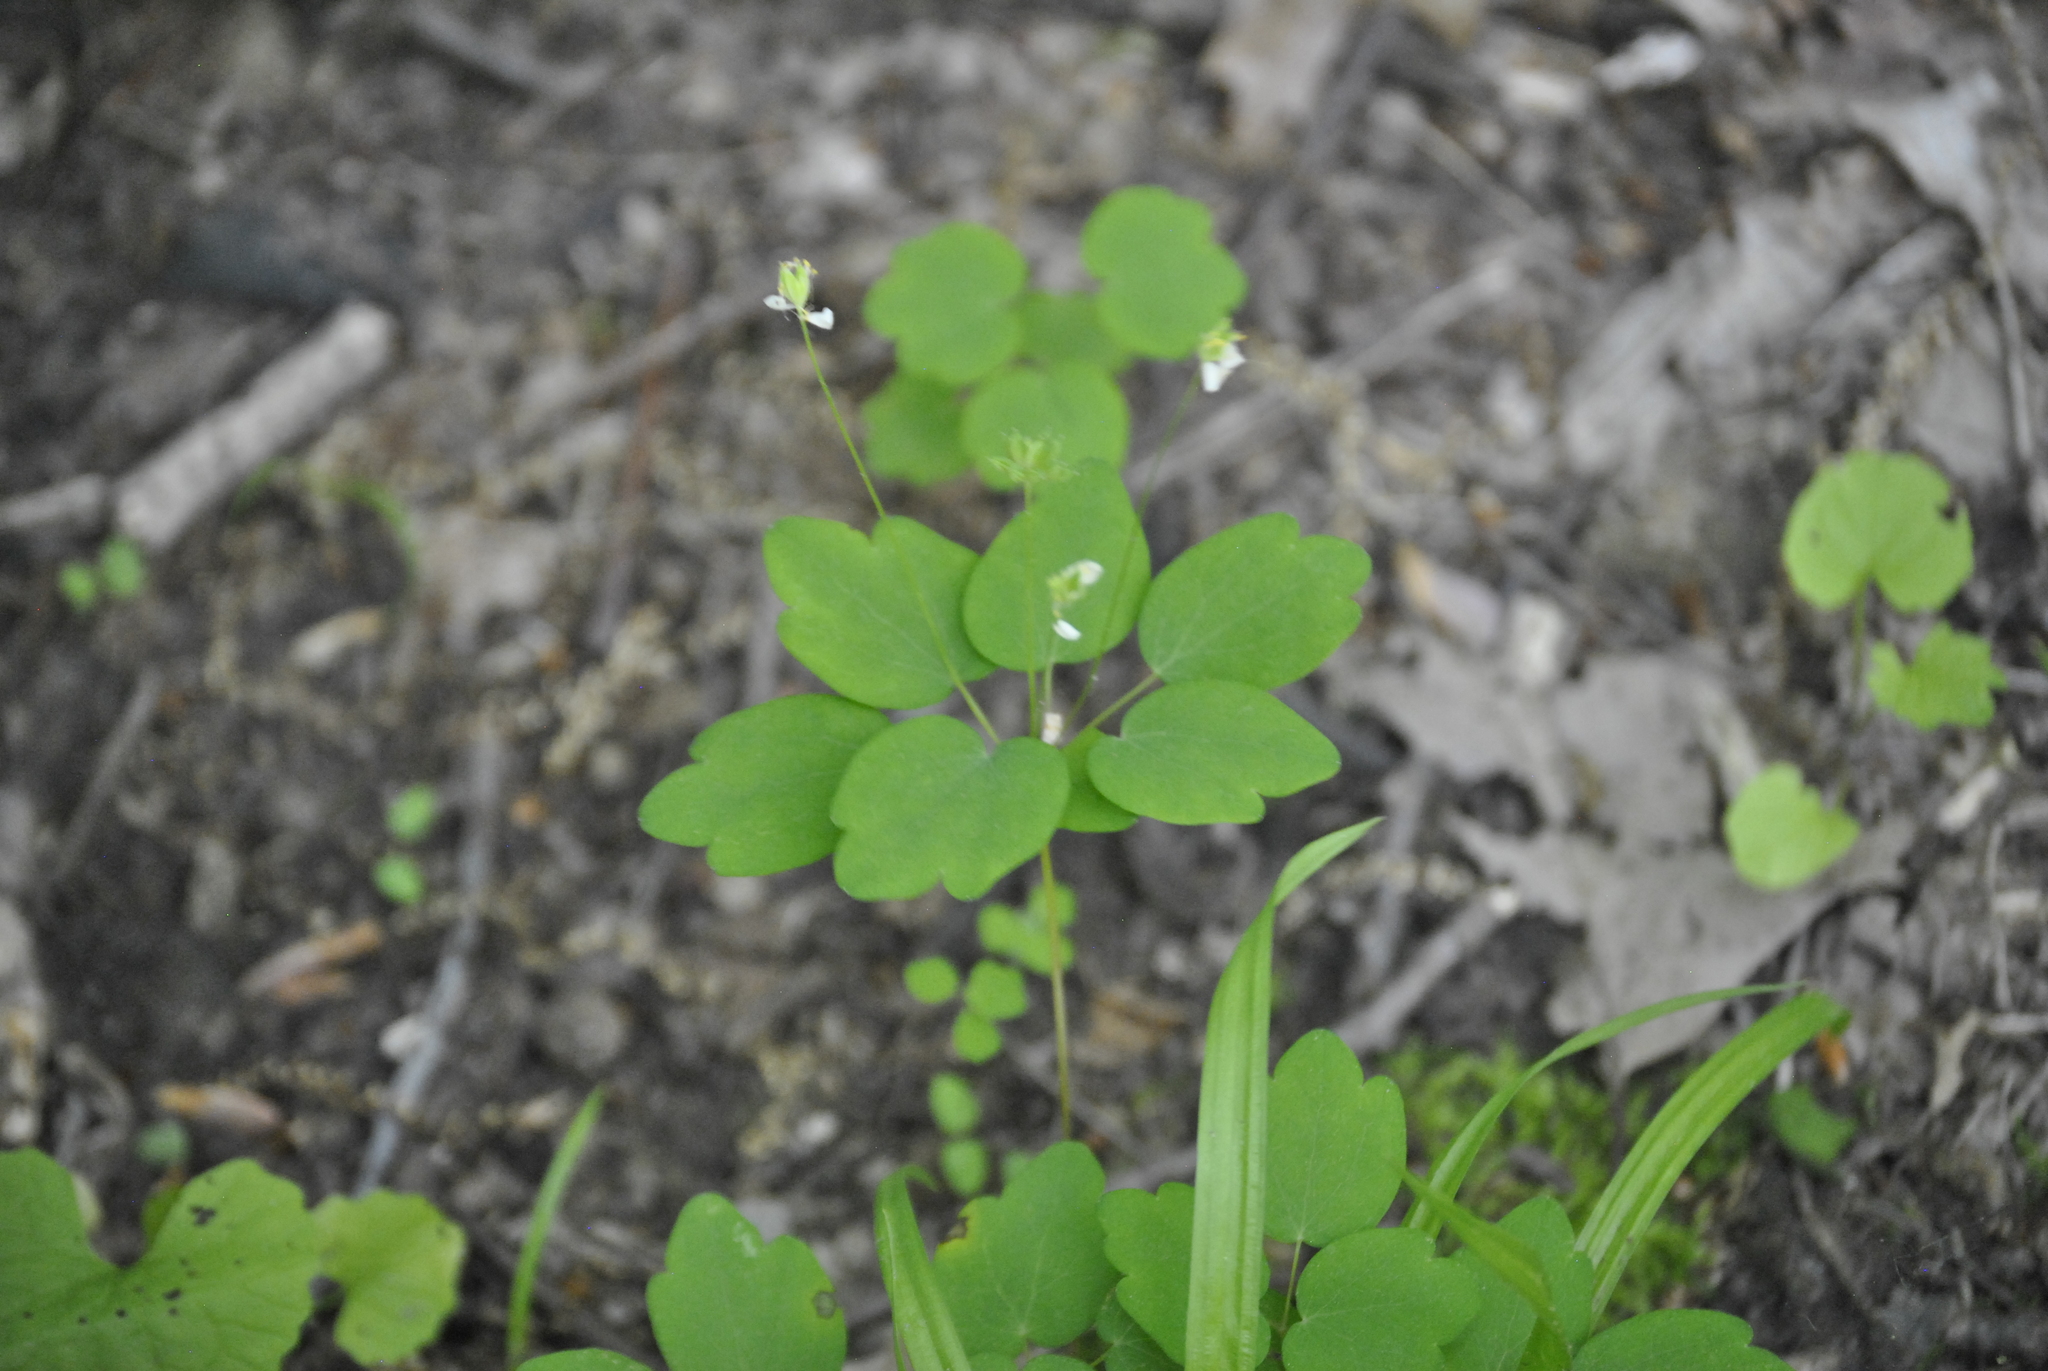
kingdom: Plantae
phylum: Tracheophyta
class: Magnoliopsida
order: Ranunculales
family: Ranunculaceae
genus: Thalictrum
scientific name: Thalictrum thalictroides
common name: Rue-anemone
